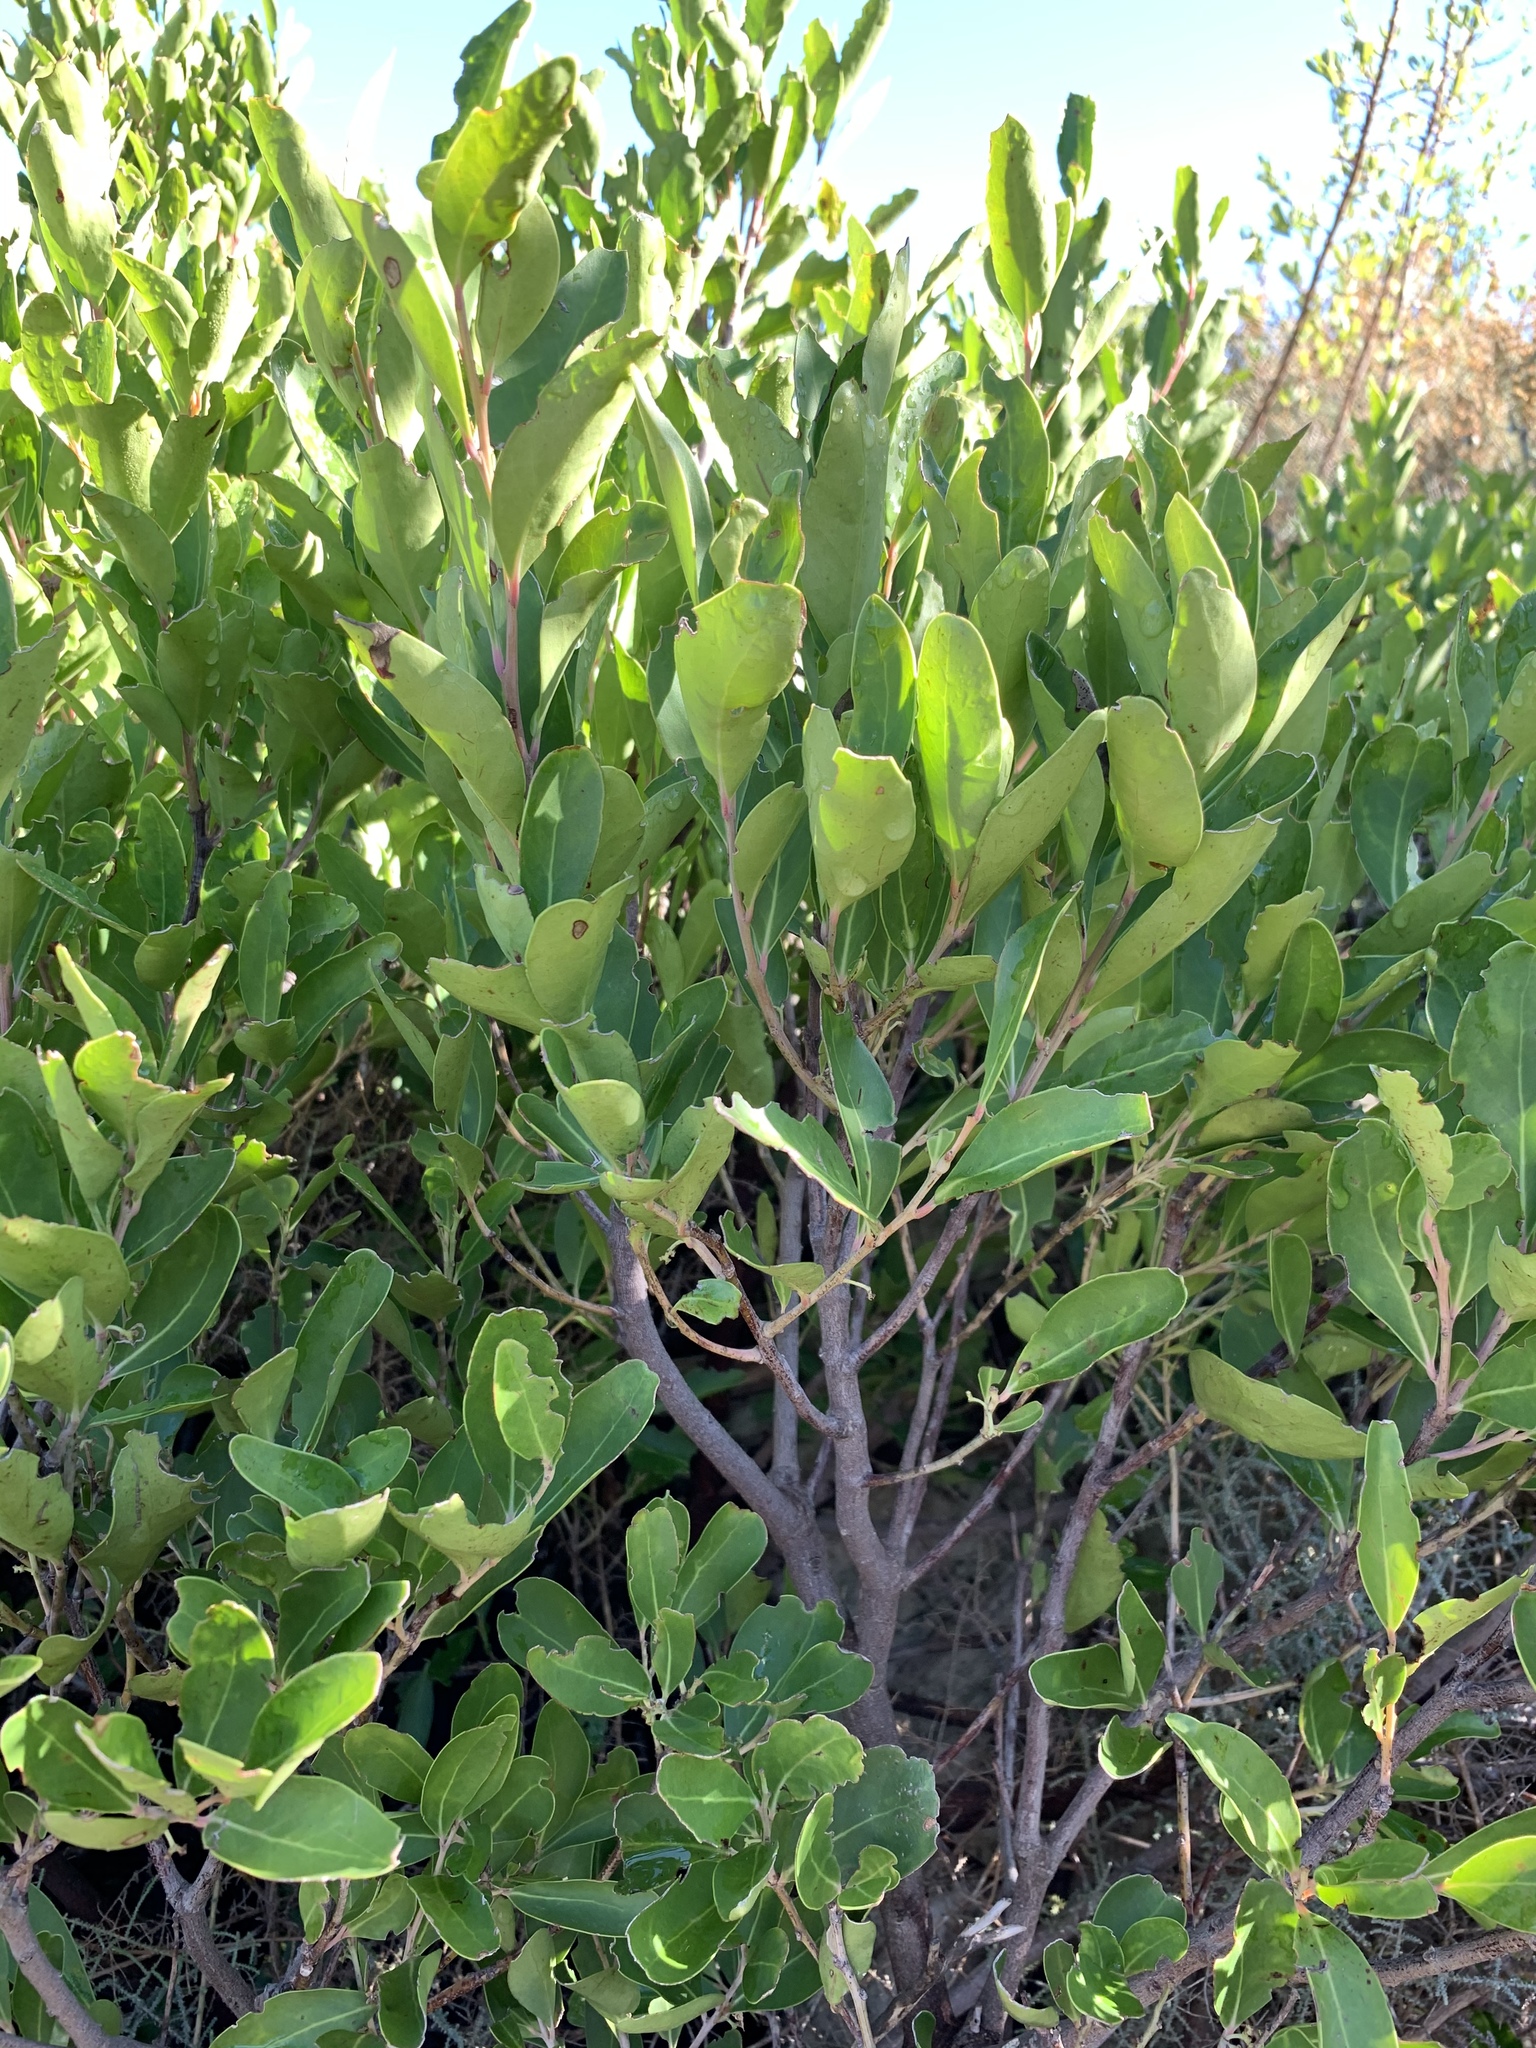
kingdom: Plantae
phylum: Tracheophyta
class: Magnoliopsida
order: Celastrales
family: Celastraceae
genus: Gymnosporia
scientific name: Gymnosporia laurina
